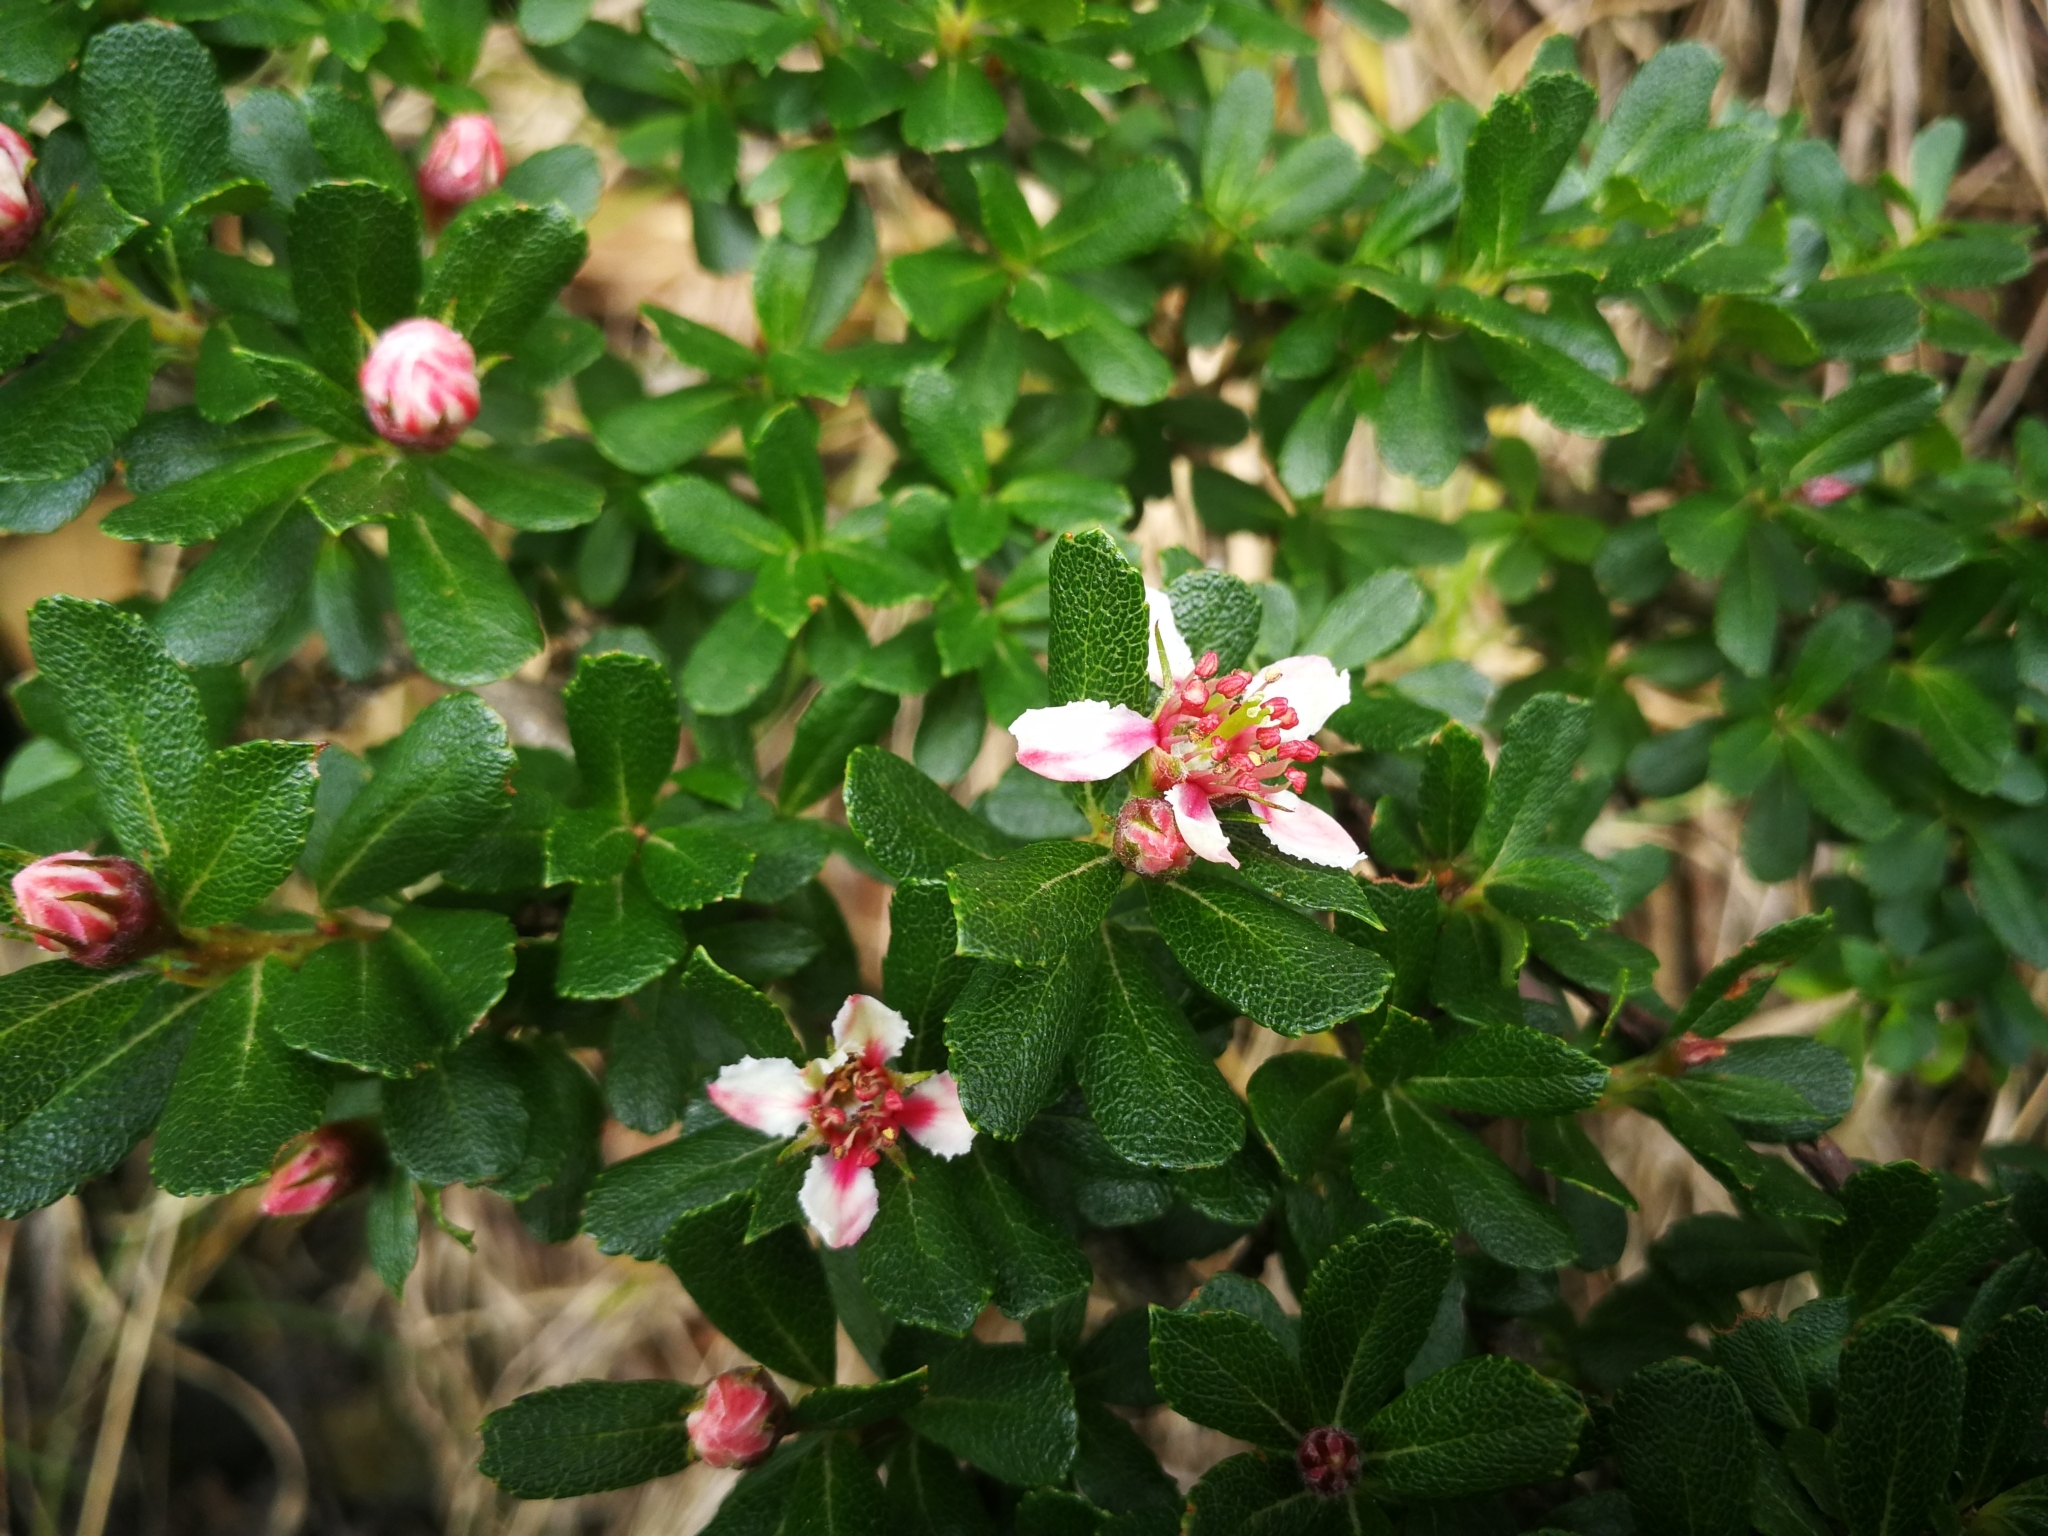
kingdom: Plantae
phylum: Tracheophyta
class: Magnoliopsida
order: Rosales
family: Rosaceae
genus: Hesperomeles
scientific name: Hesperomeles obtusifolia
